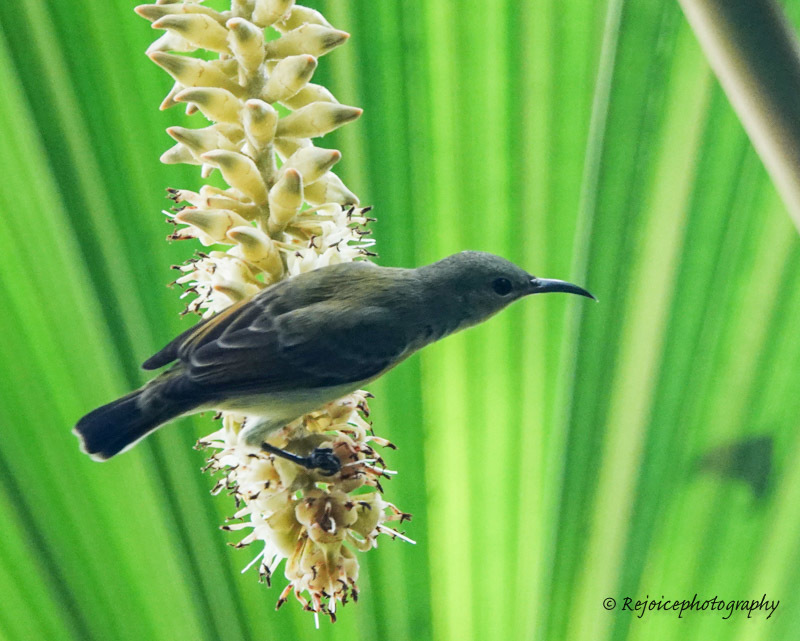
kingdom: Animalia
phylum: Chordata
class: Aves
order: Passeriformes
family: Nectariniidae
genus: Leptocoma
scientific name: Leptocoma brasiliana
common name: Van hasselt's sunbird
